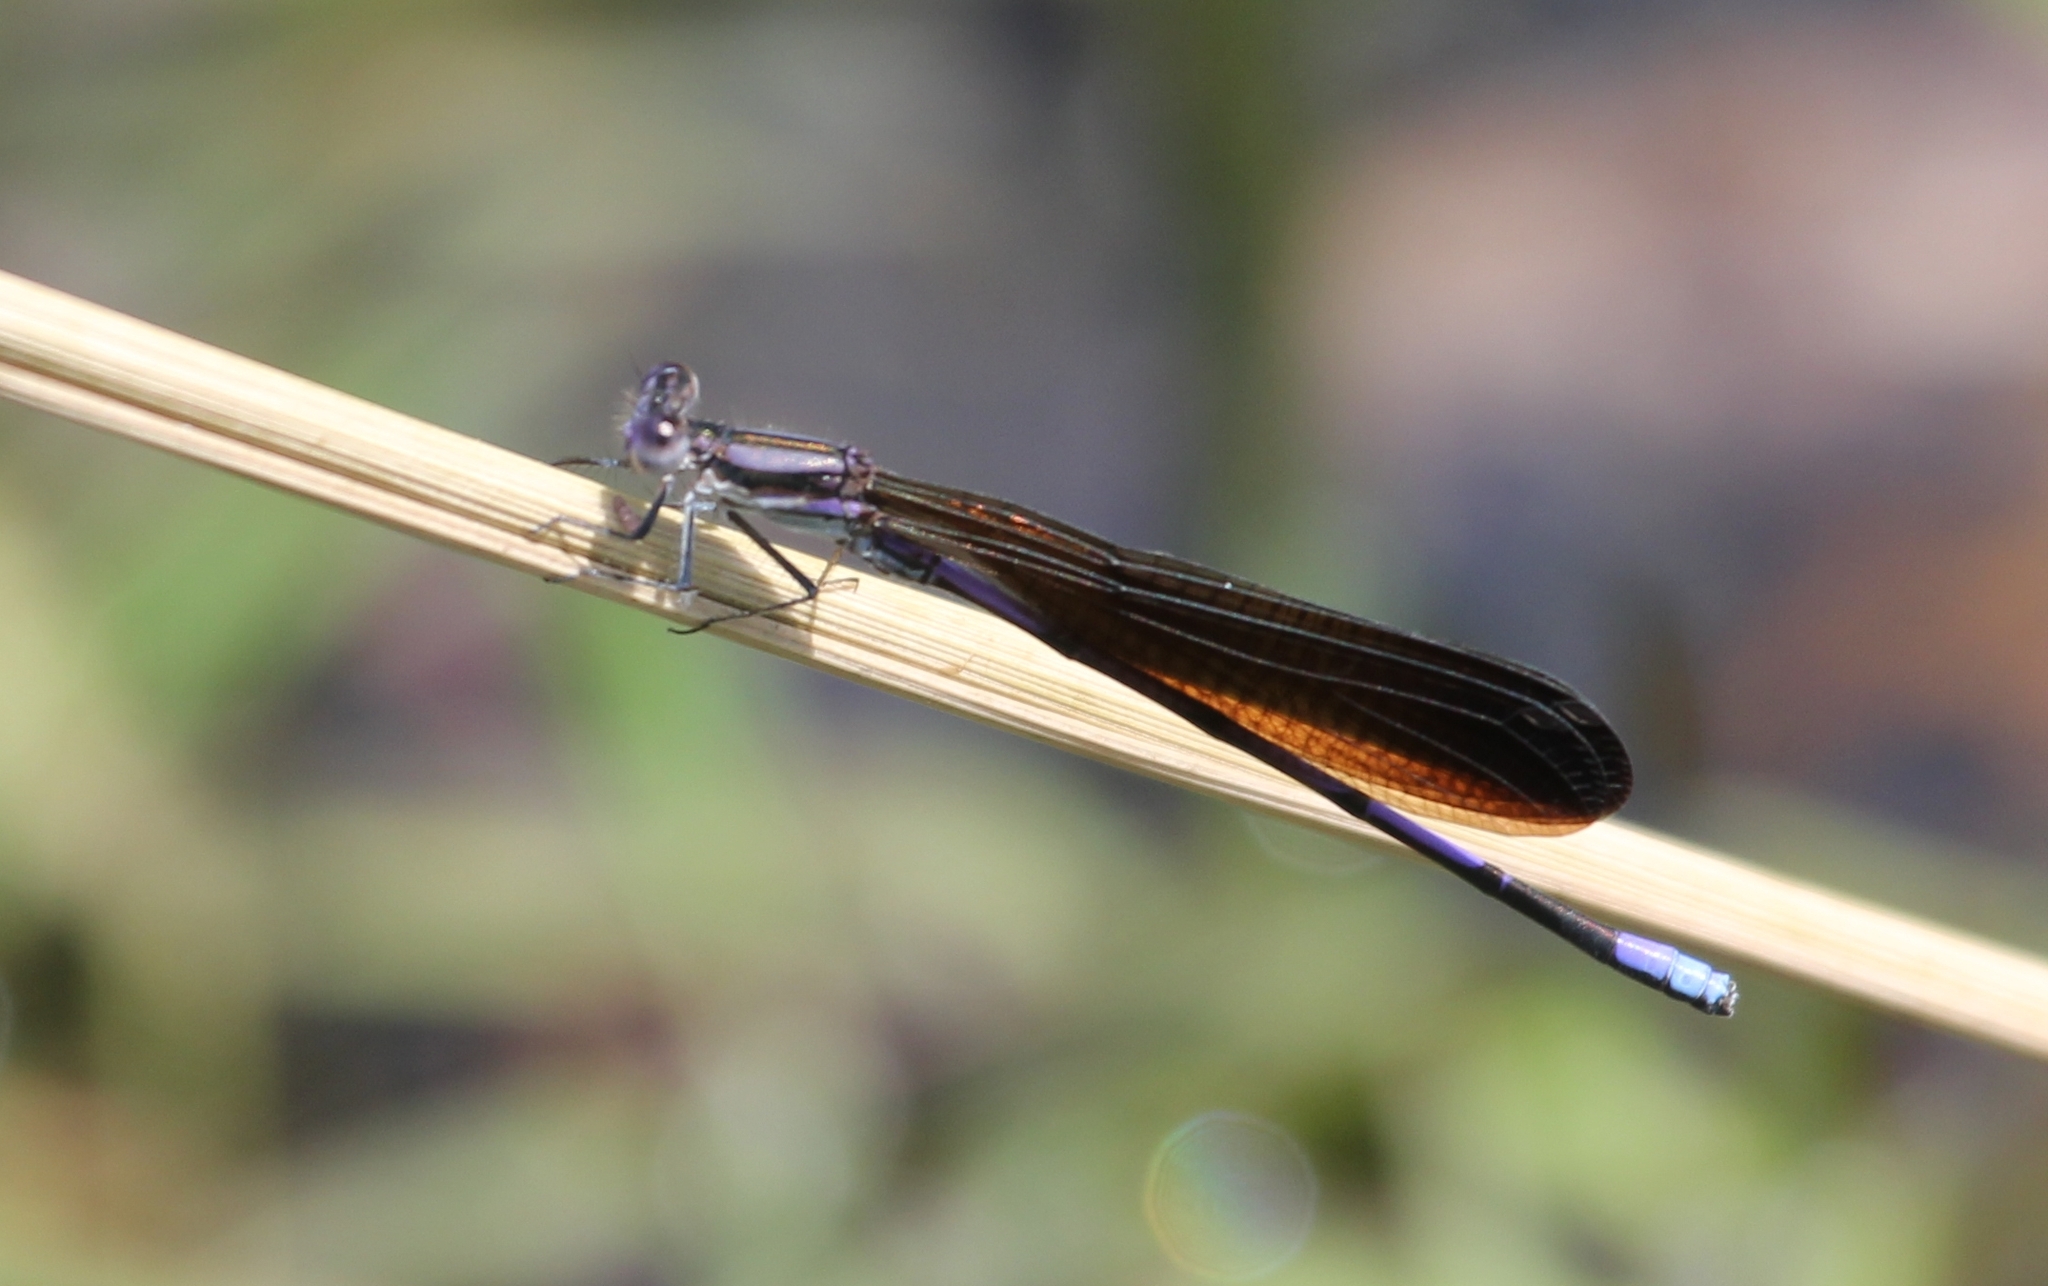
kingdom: Animalia
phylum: Arthropoda
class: Insecta
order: Odonata
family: Coenagrionidae
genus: Argia
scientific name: Argia fumipennis
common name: Variable dancer
